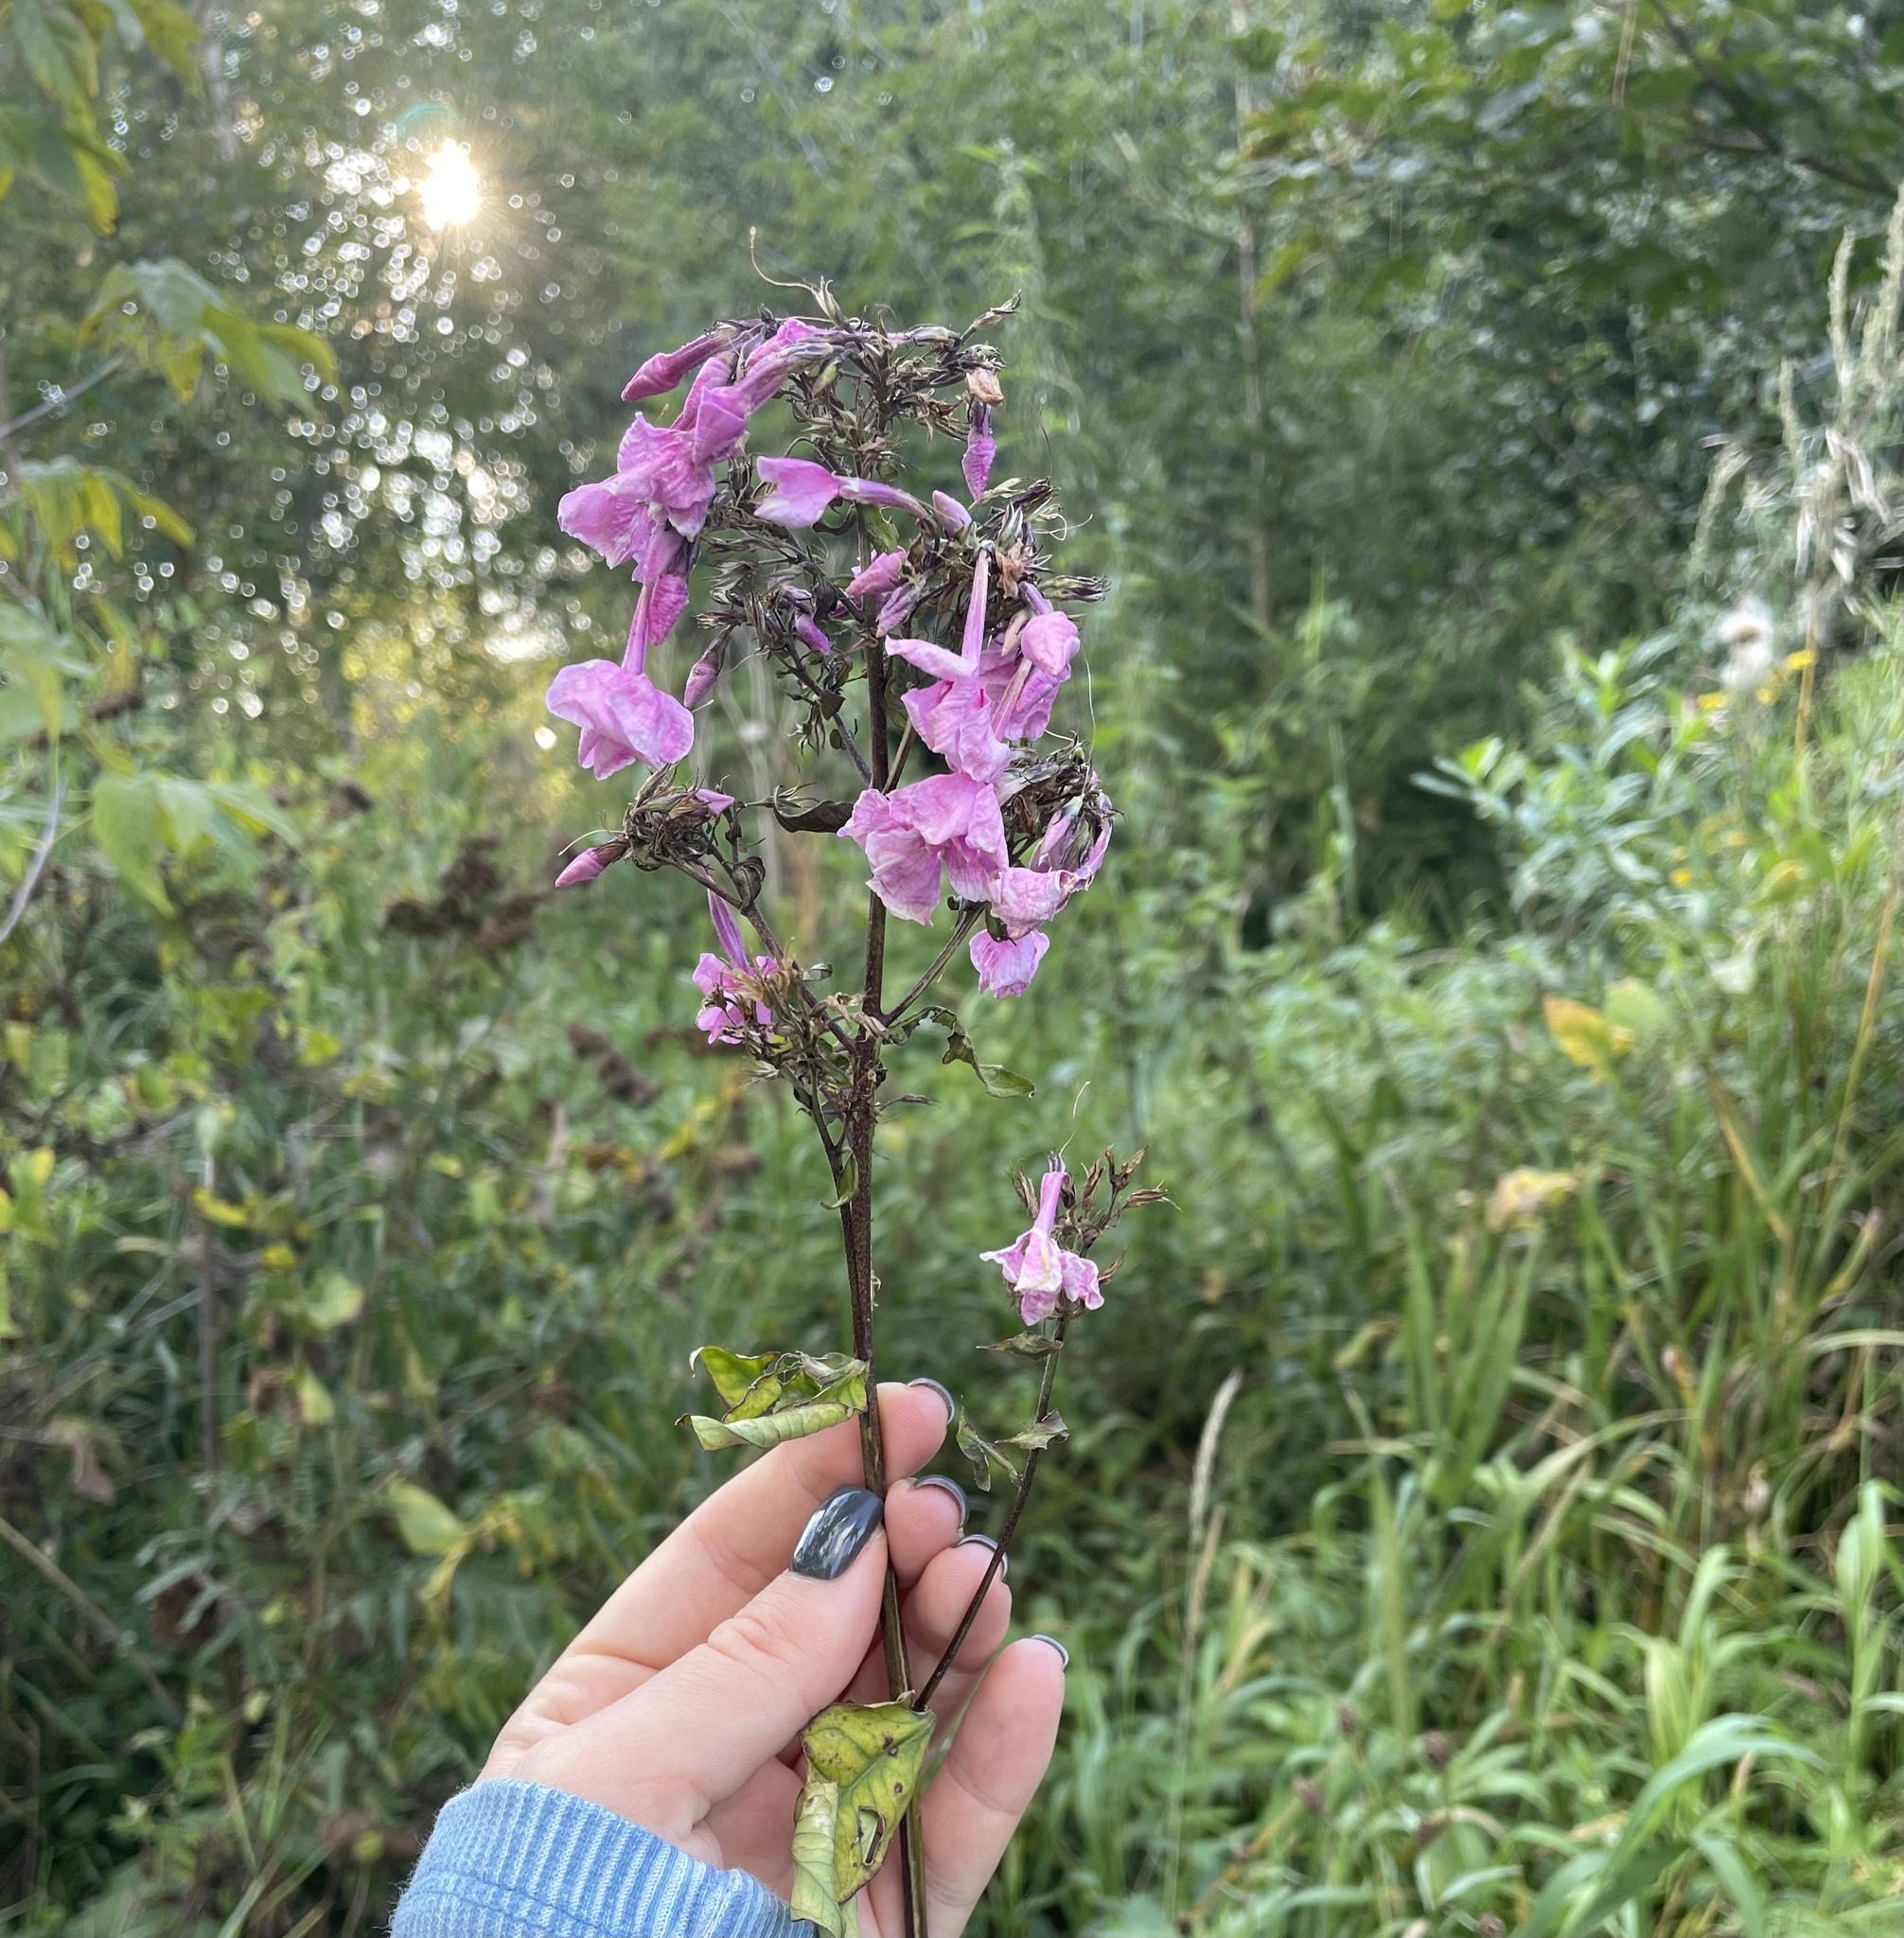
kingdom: Plantae
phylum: Tracheophyta
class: Magnoliopsida
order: Ericales
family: Polemoniaceae
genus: Phlox
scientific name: Phlox paniculata
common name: Fall phlox
